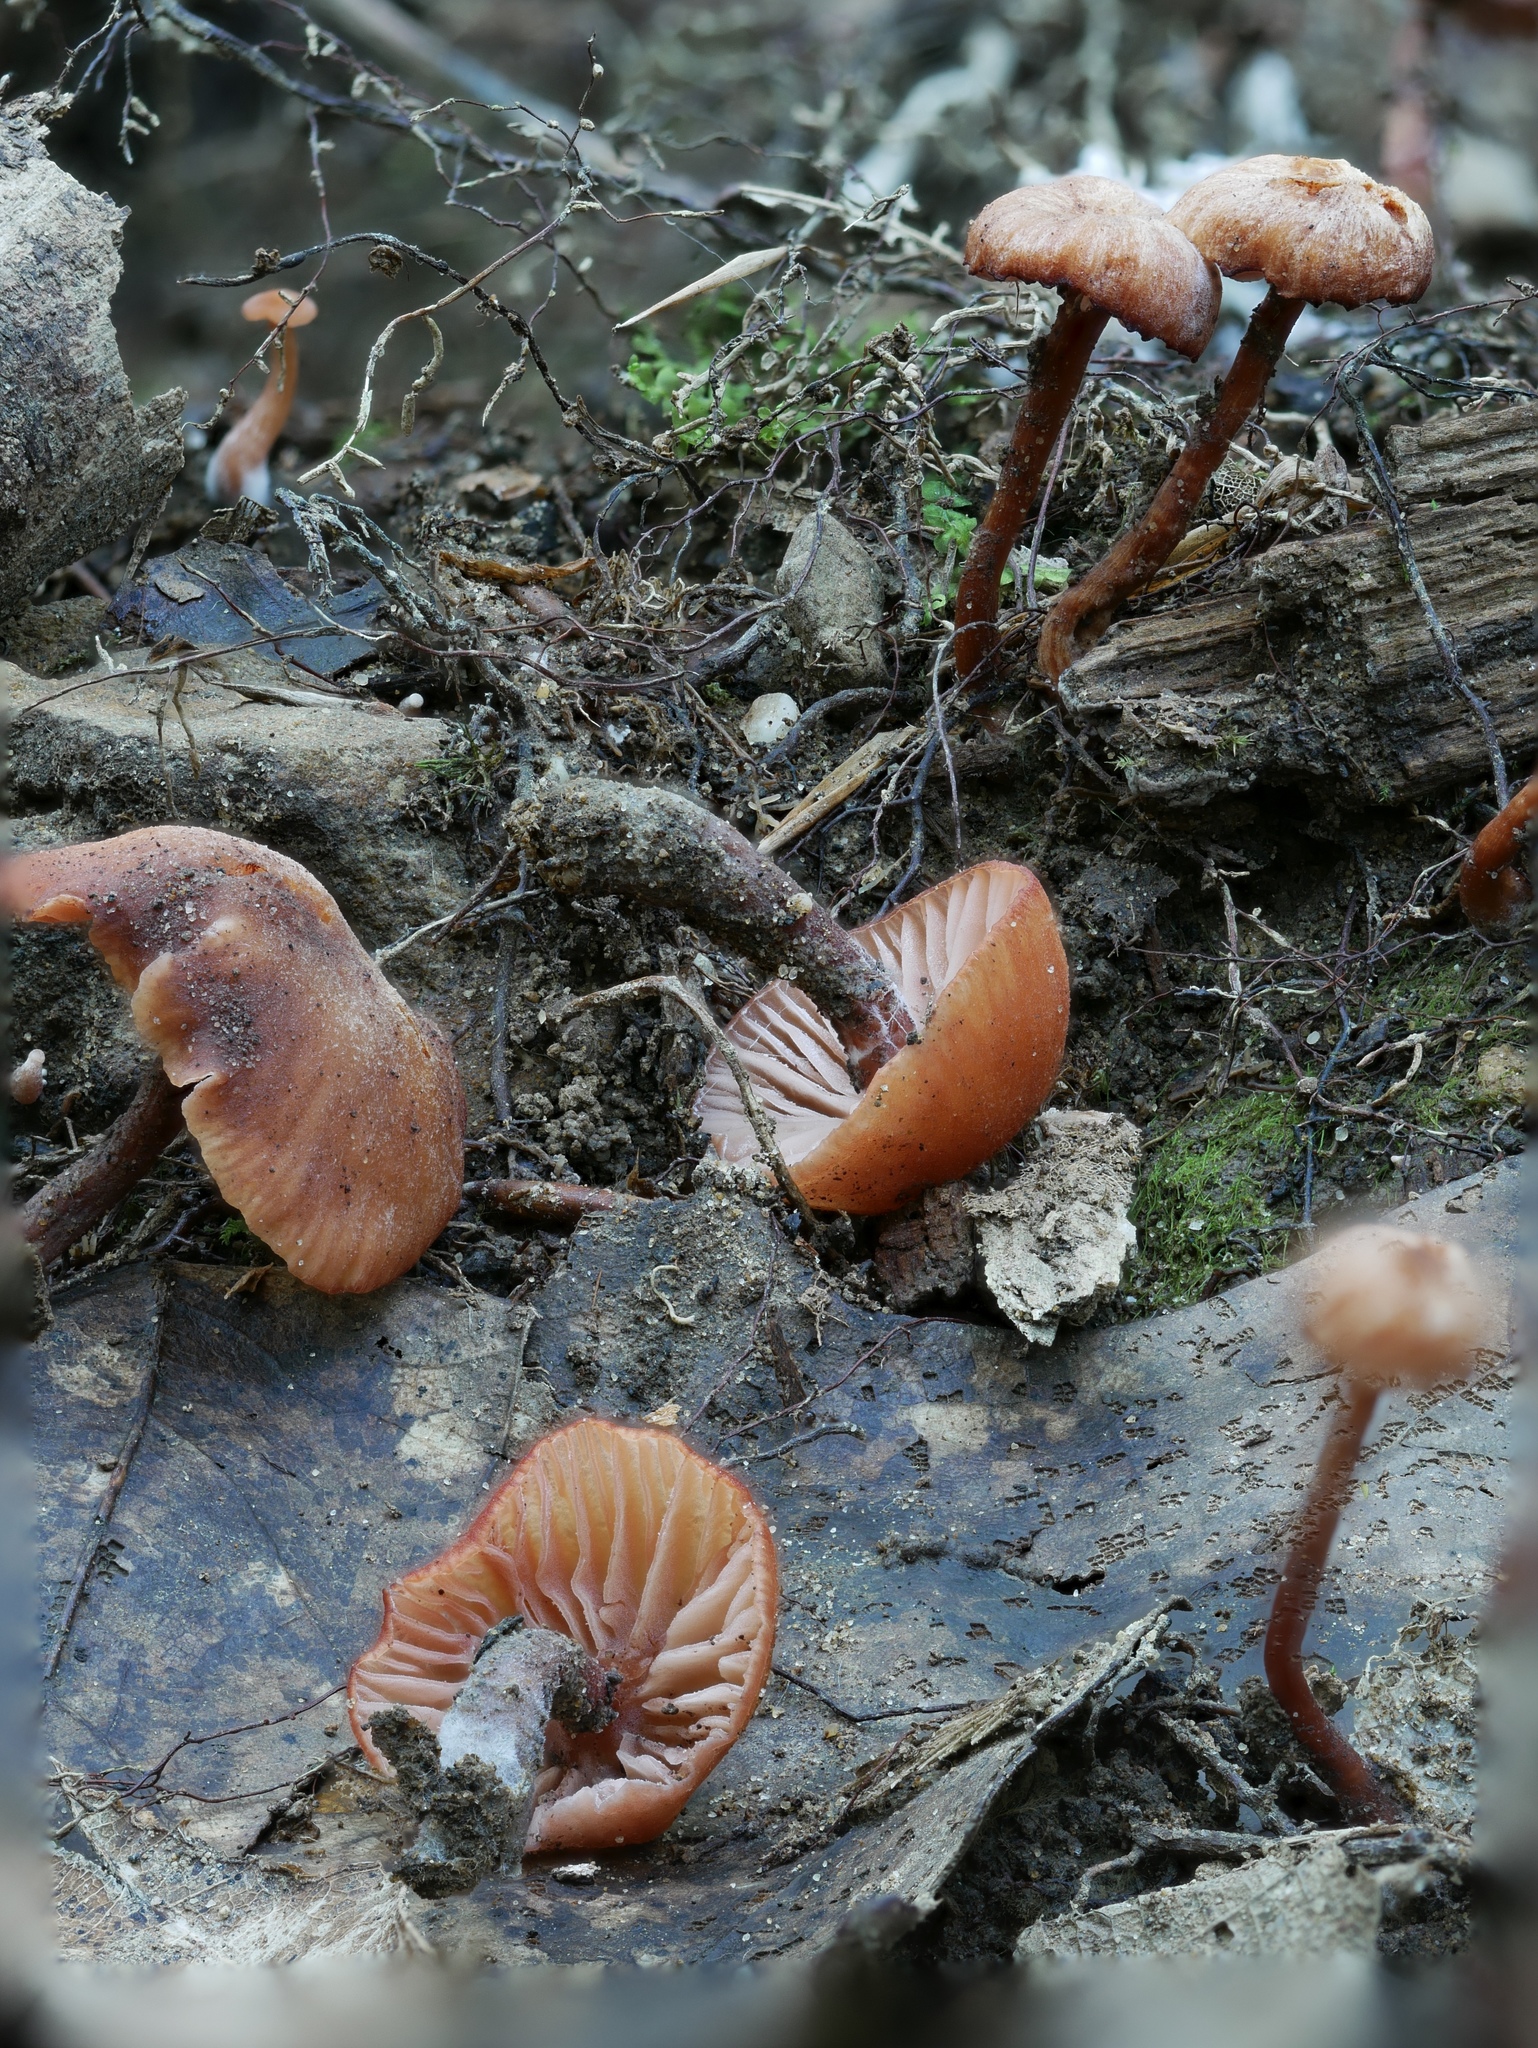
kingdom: Fungi
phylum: Basidiomycota
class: Agaricomycetes
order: Agaricales
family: Hydnangiaceae
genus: Laccaria
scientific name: Laccaria ohiensis
